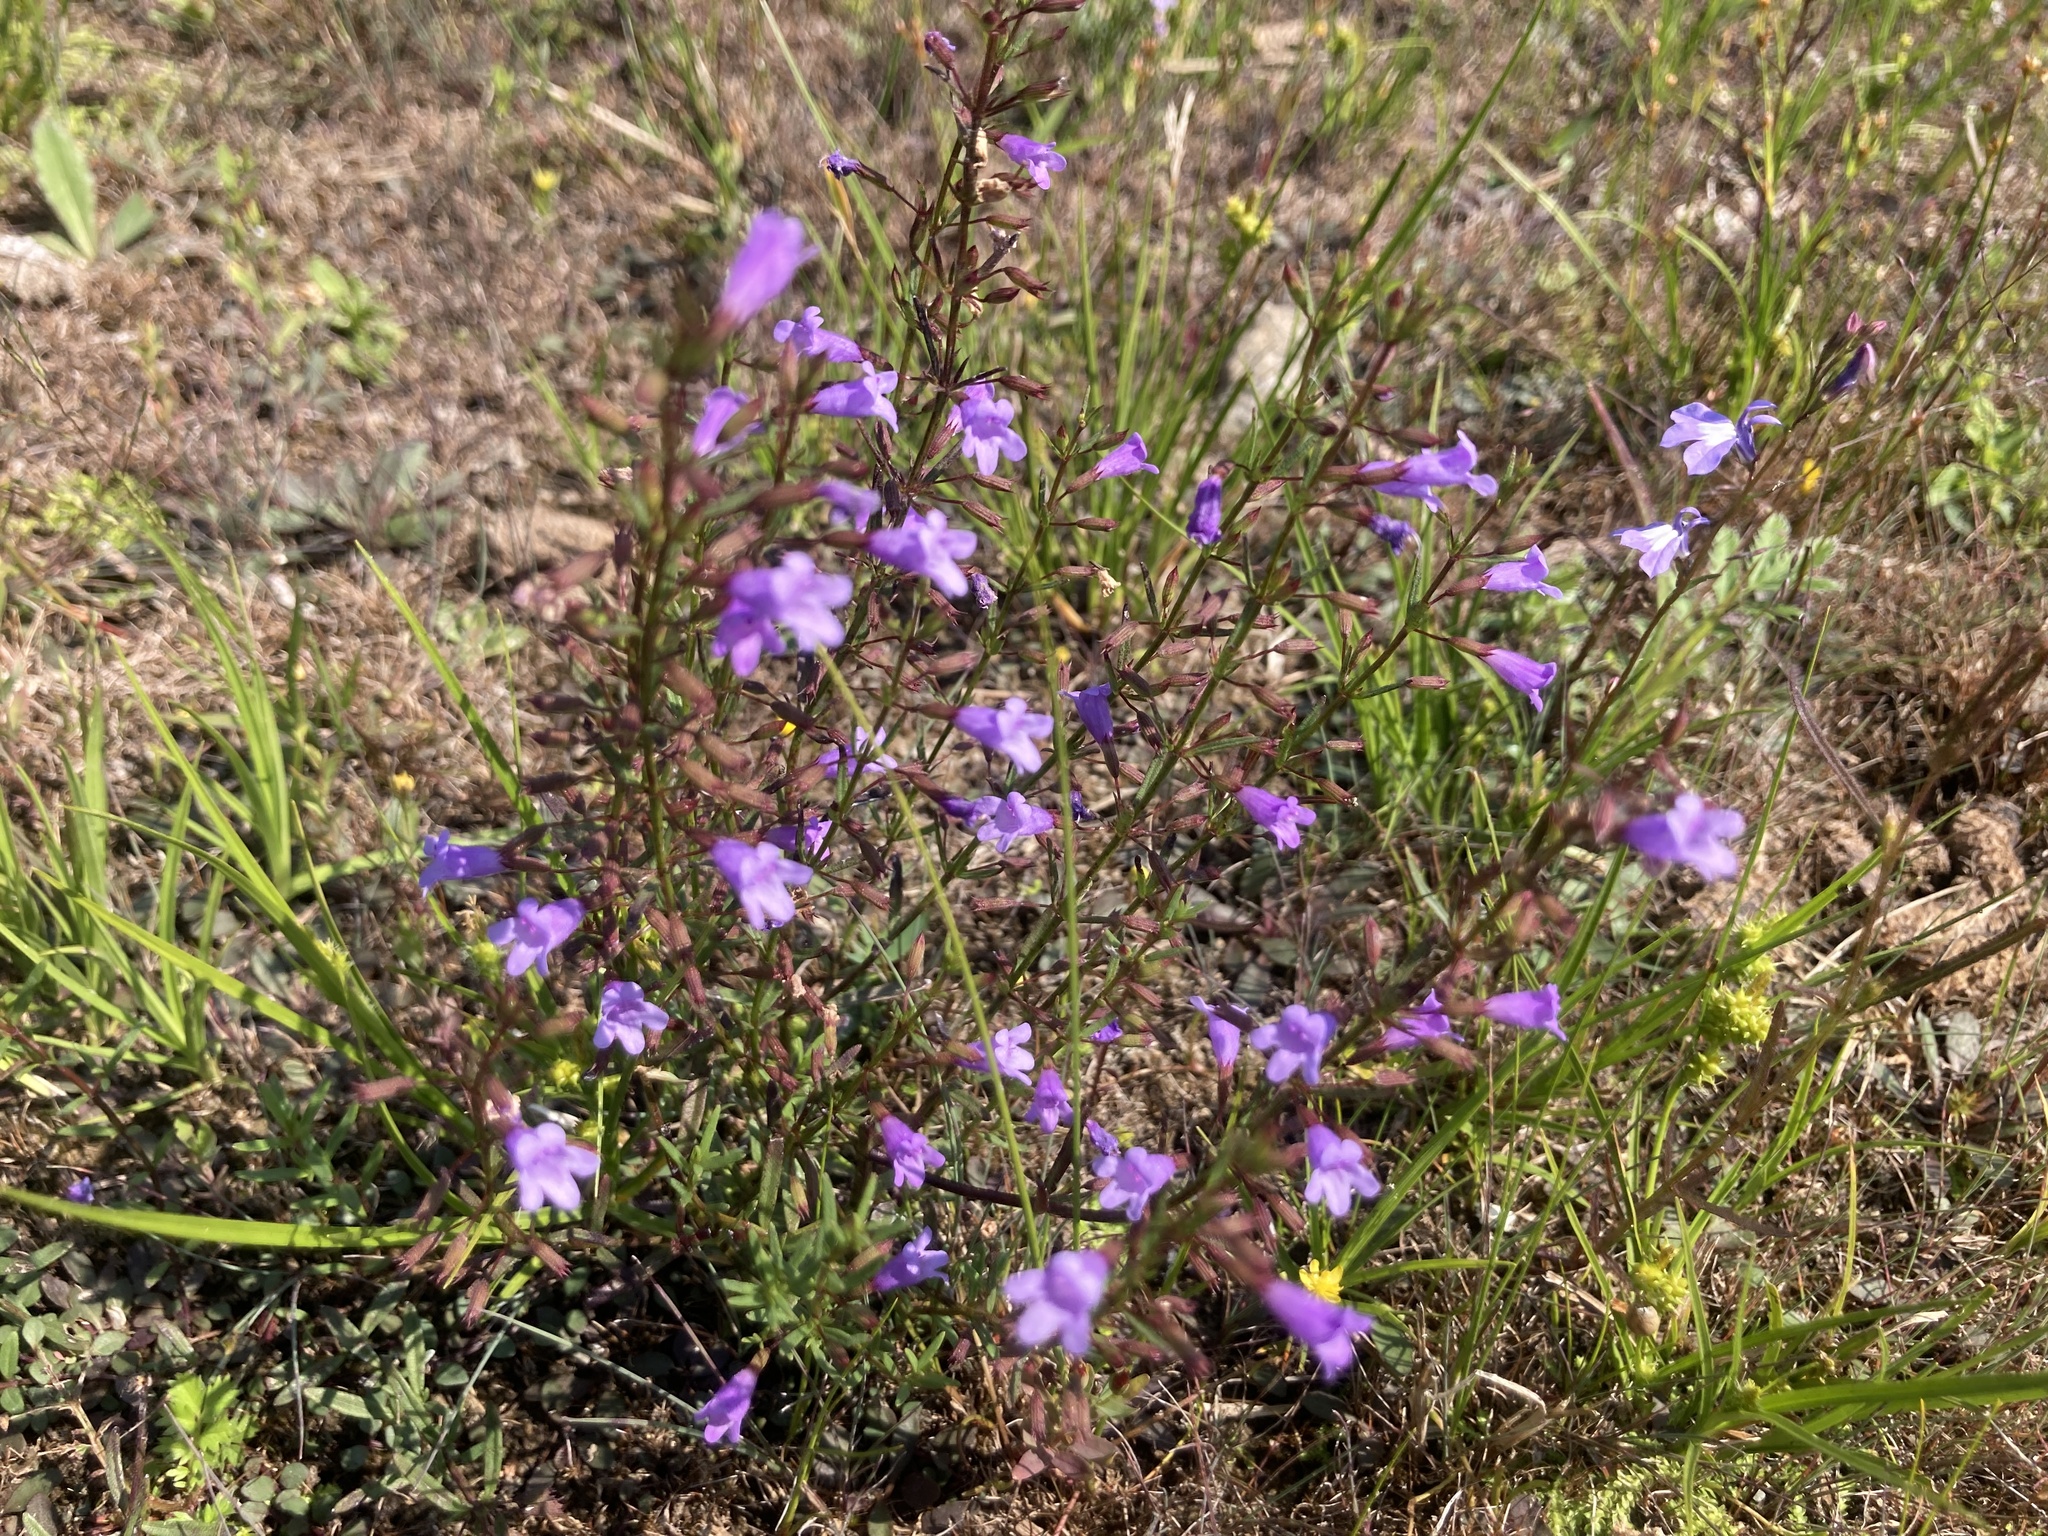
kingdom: Plantae
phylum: Tracheophyta
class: Magnoliopsida
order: Lamiales
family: Lamiaceae
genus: Clinopodium
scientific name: Clinopodium arkansanum
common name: Limestone calamint
